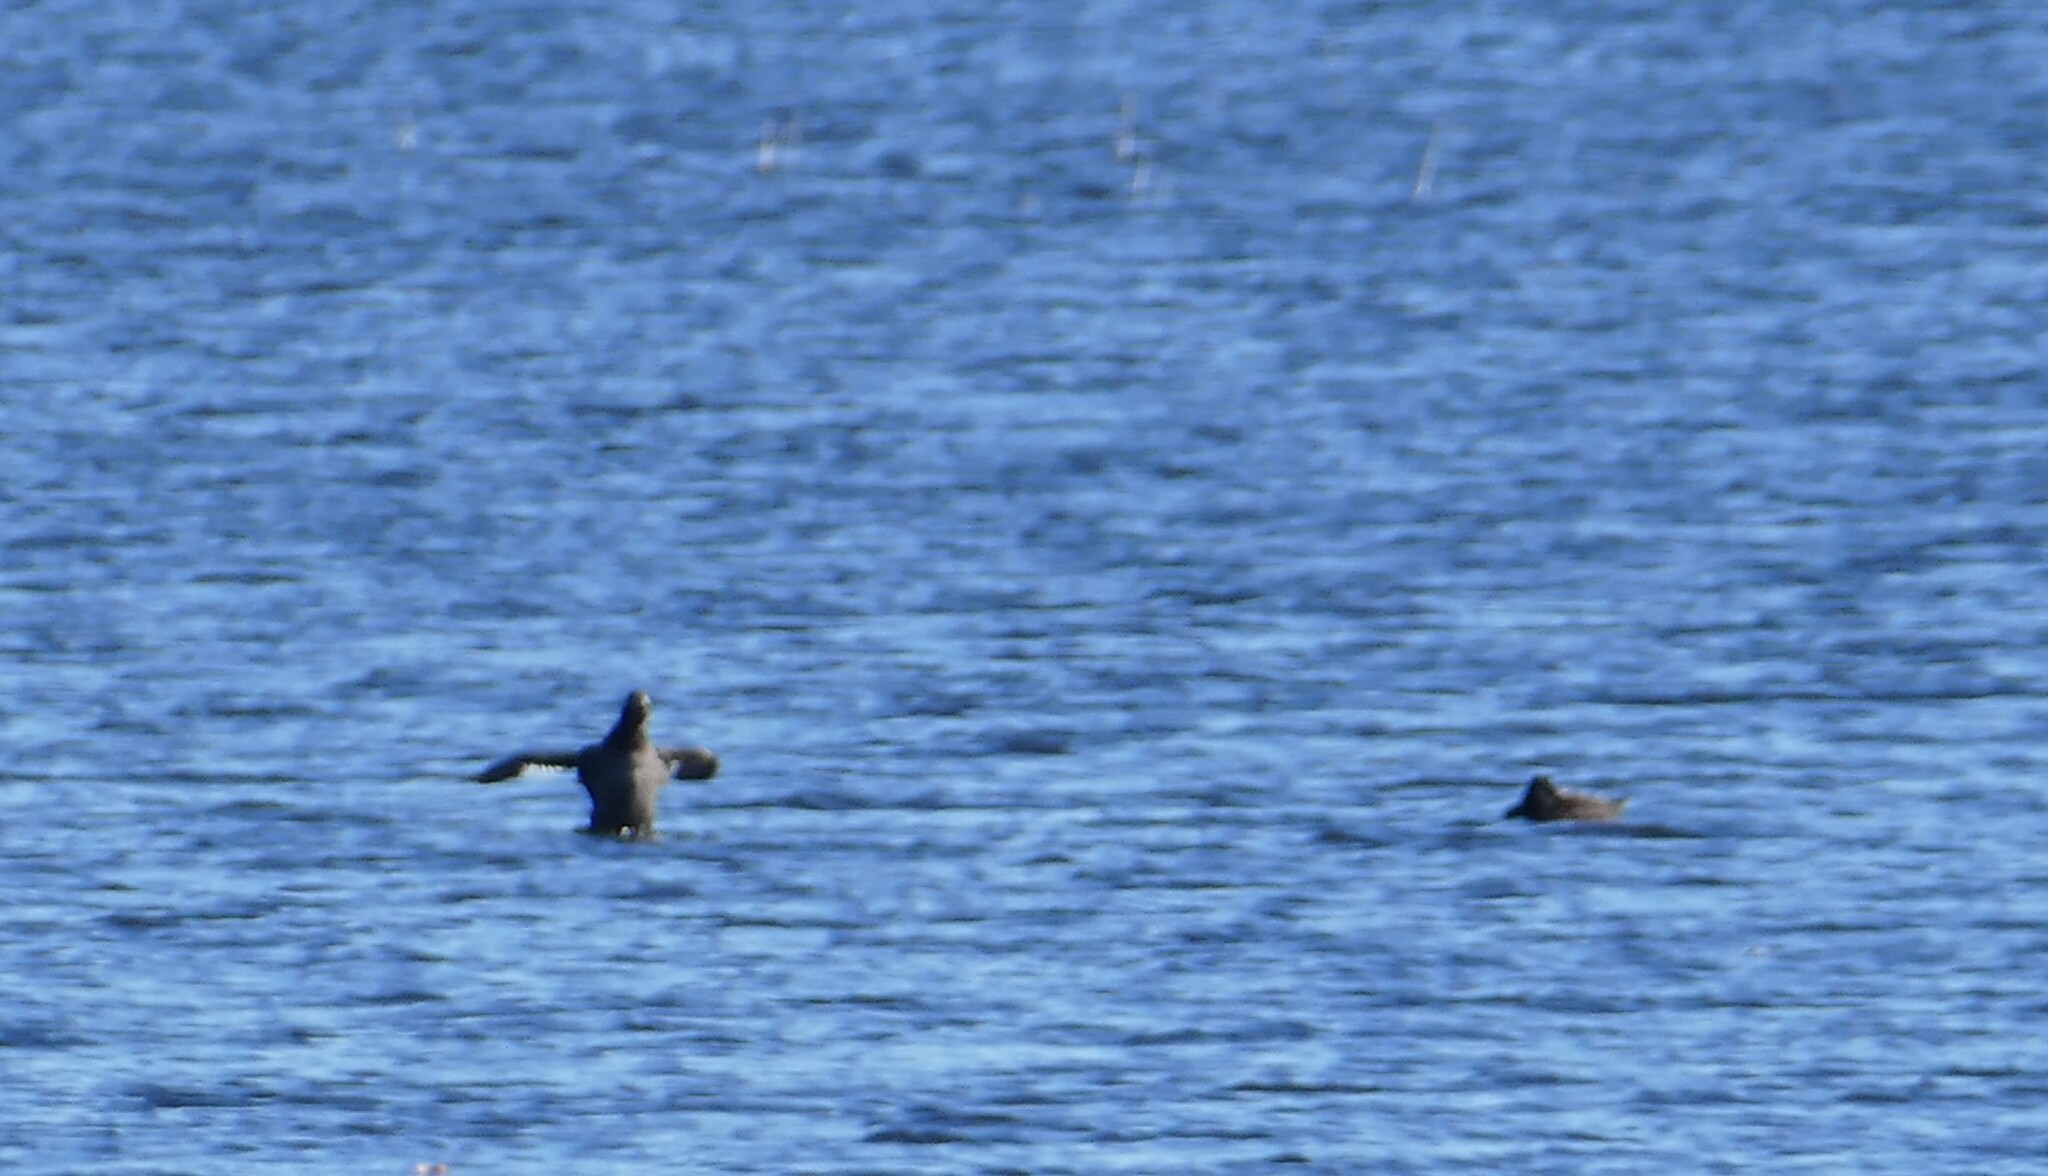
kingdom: Animalia
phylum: Chordata
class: Aves
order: Anseriformes
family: Anatidae
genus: Melanitta
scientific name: Melanitta deglandi
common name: White-winged scoter
